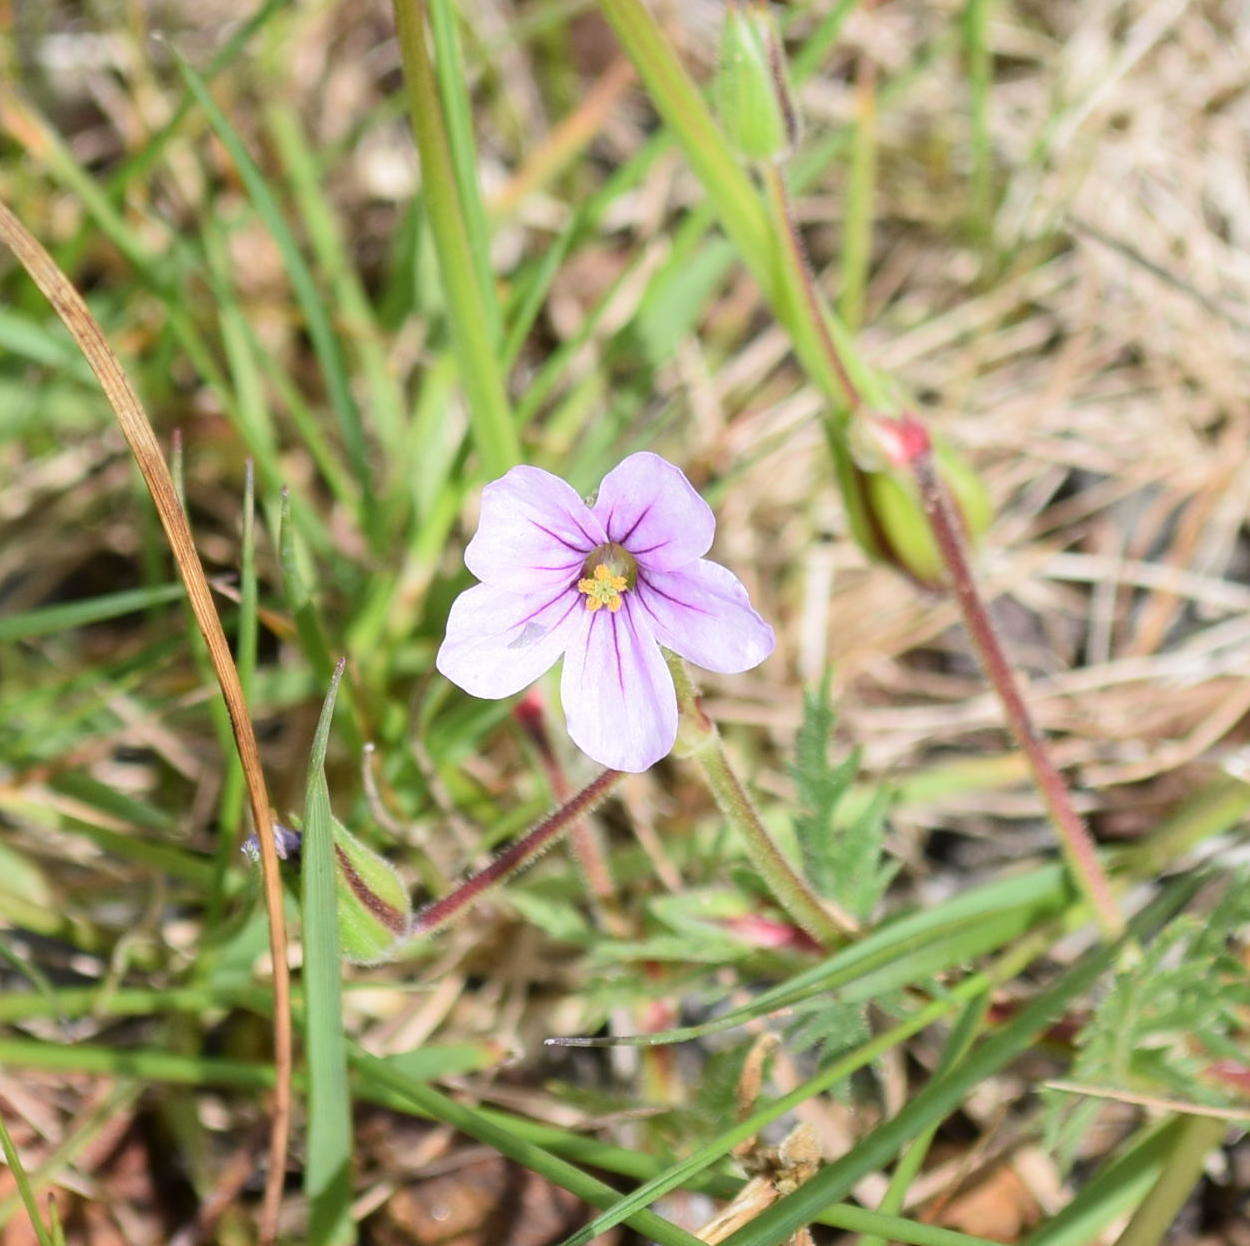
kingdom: Plantae
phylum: Tracheophyta
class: Magnoliopsida
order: Geraniales
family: Geraniaceae
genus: Erodium
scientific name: Erodium botrys
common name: Mediterranean stork's-bill
